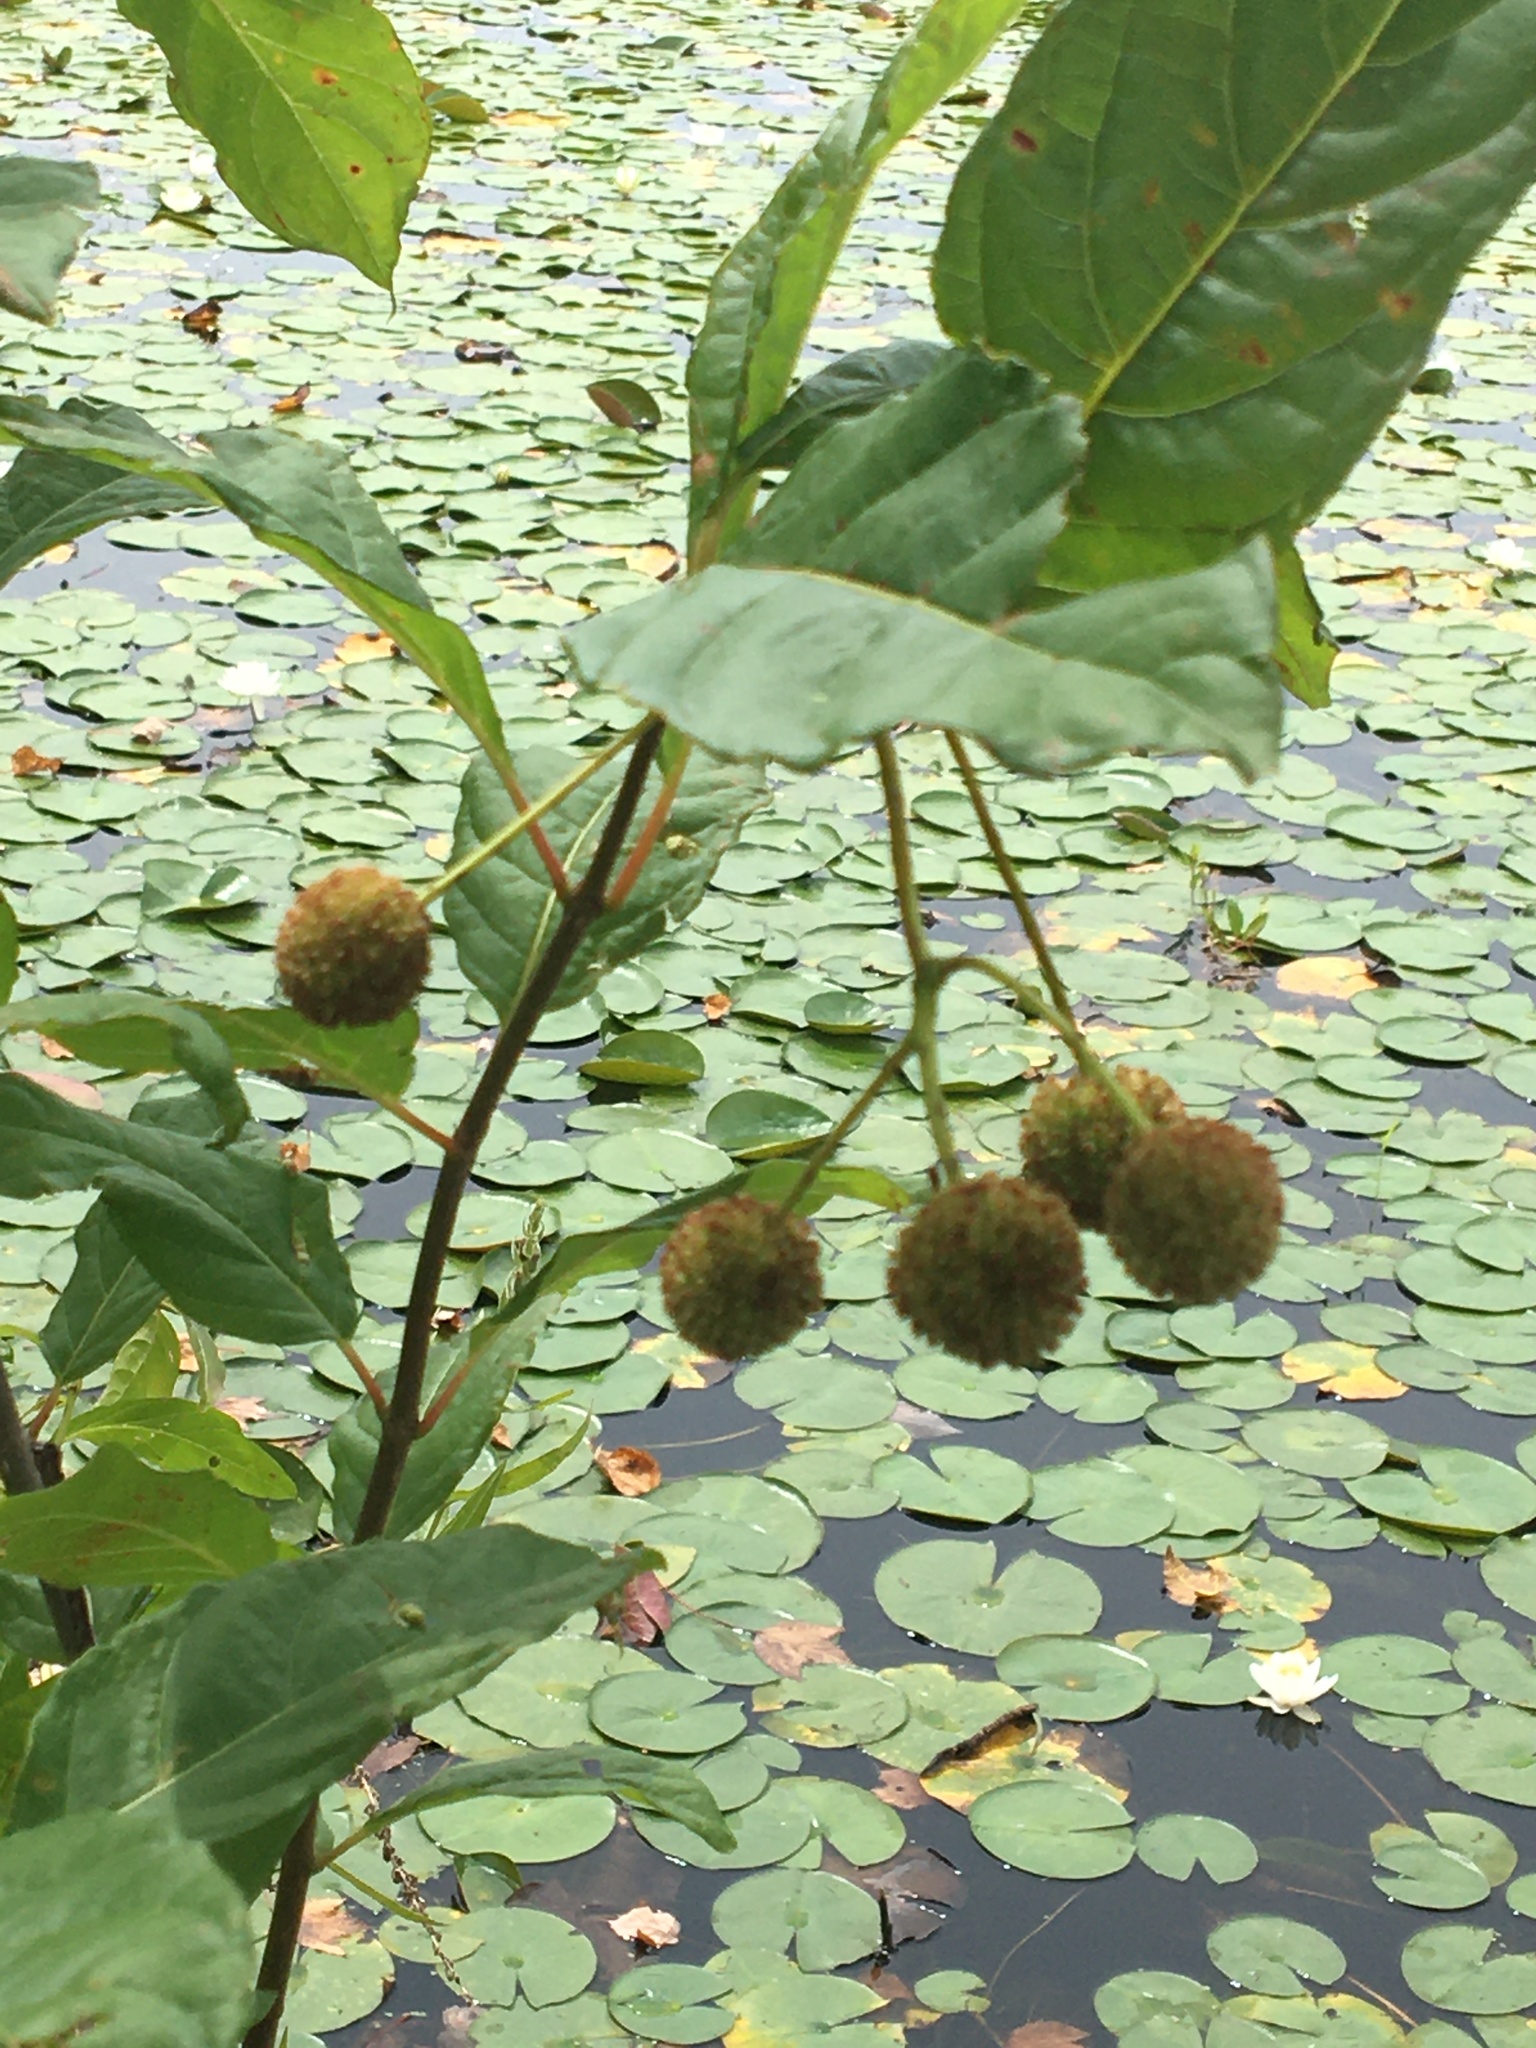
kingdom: Plantae
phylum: Tracheophyta
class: Magnoliopsida
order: Gentianales
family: Rubiaceae
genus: Cephalanthus
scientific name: Cephalanthus occidentalis
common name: Button-willow
